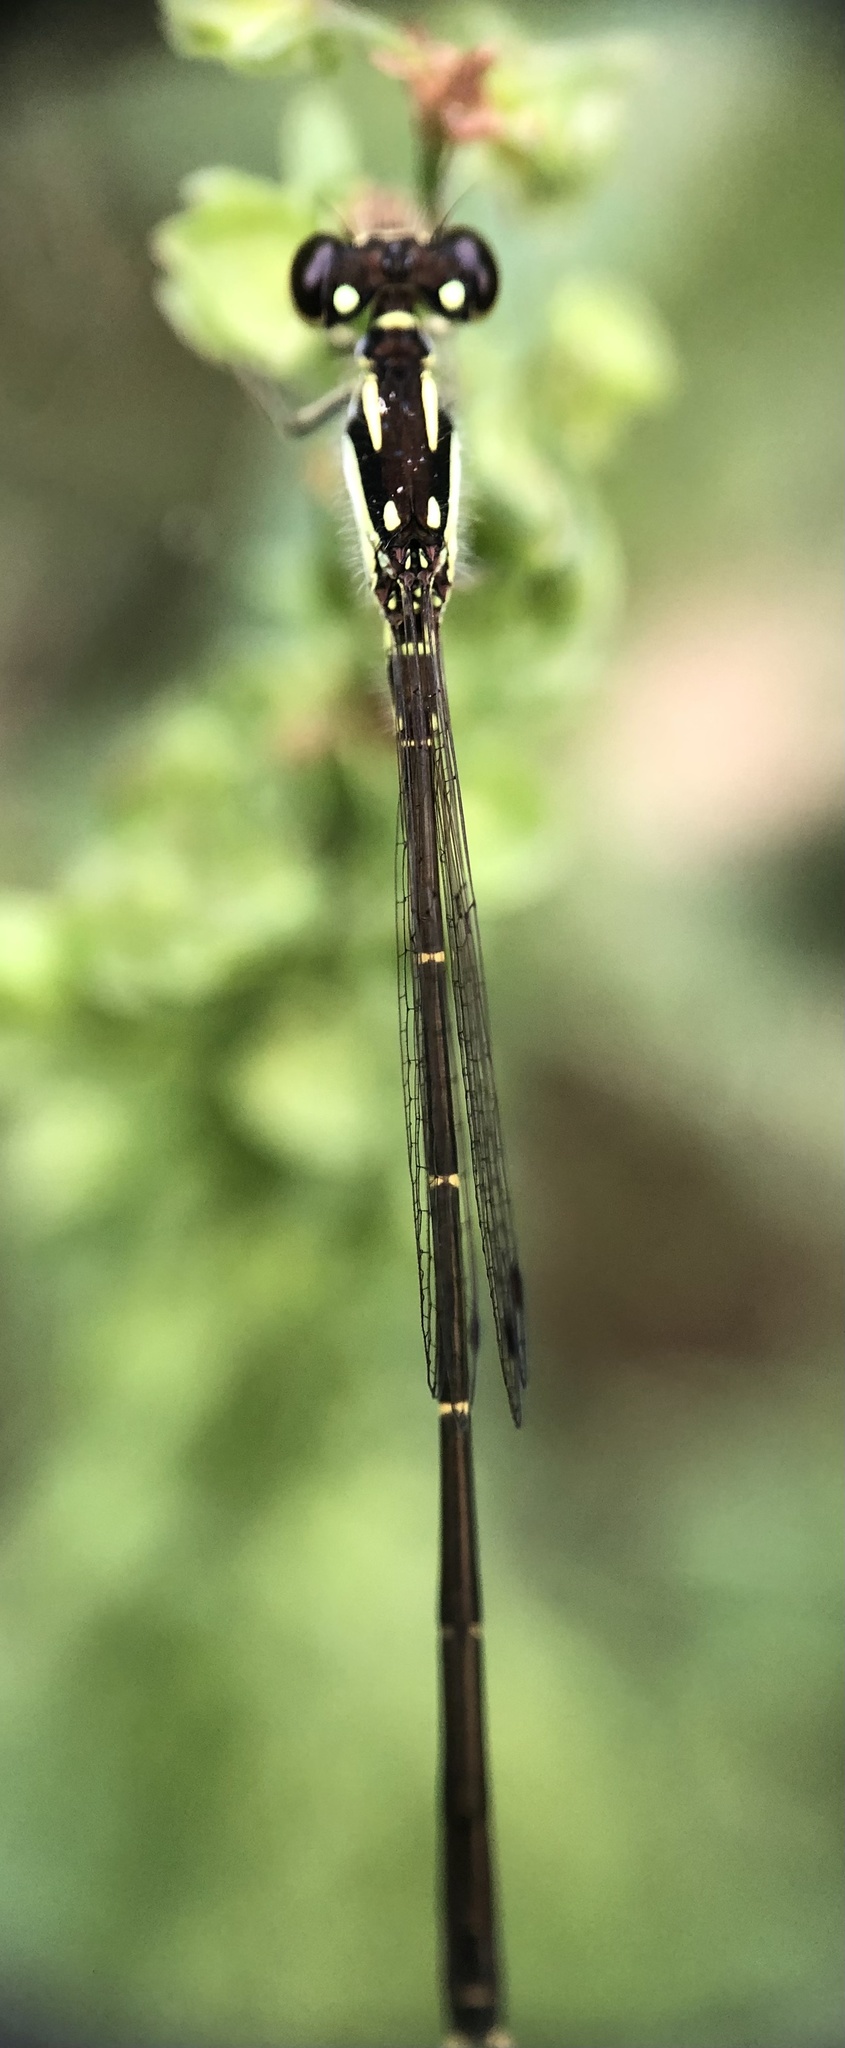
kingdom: Animalia
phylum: Arthropoda
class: Insecta
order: Odonata
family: Coenagrionidae
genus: Ischnura
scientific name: Ischnura posita
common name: Fragile forktail
